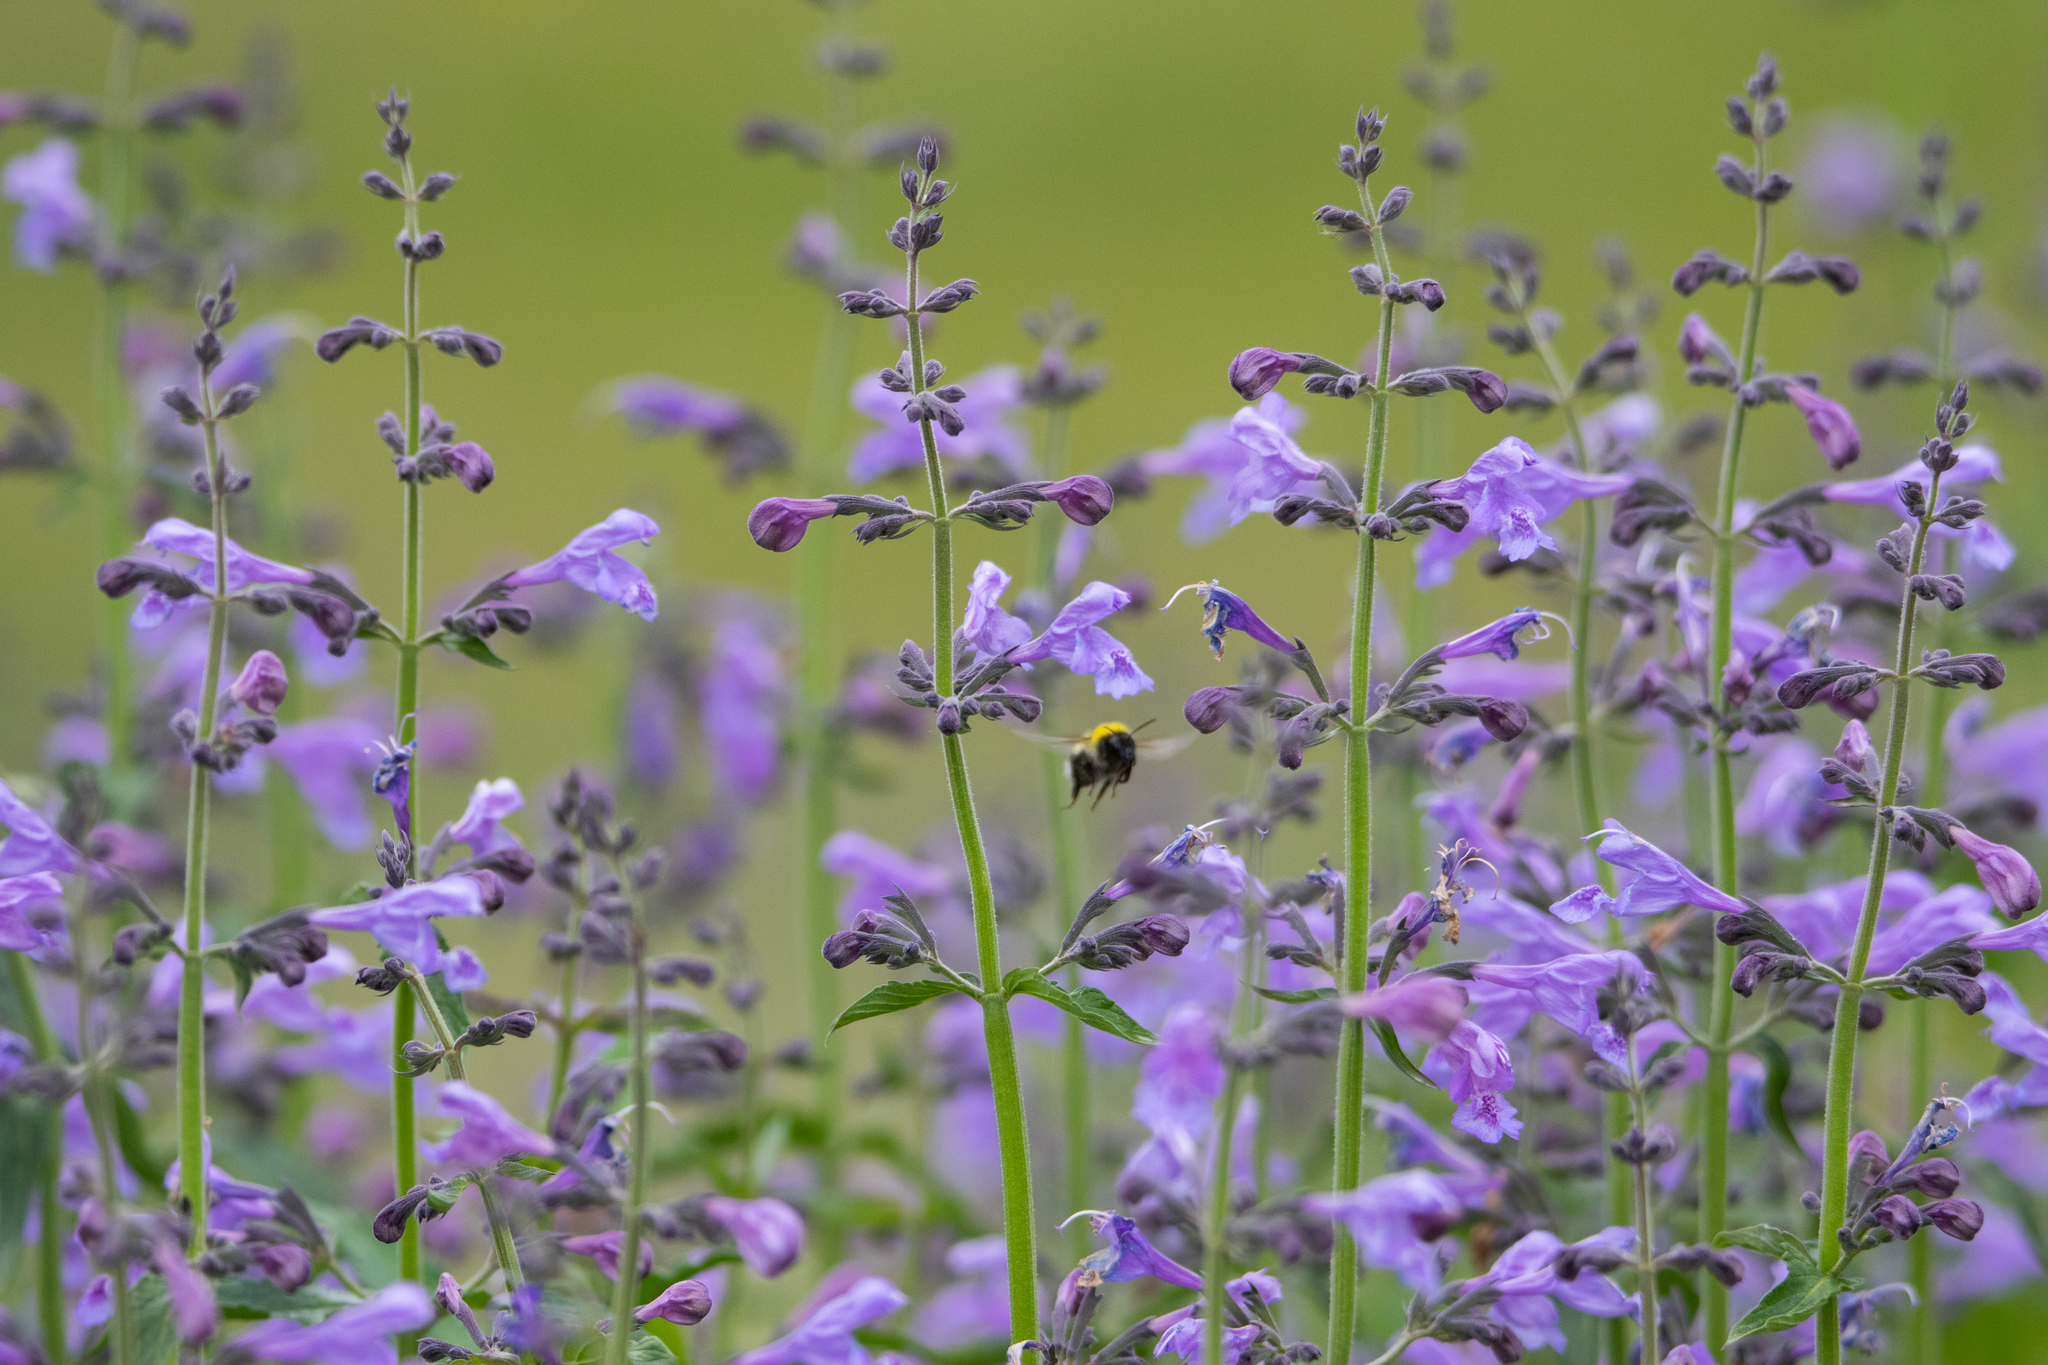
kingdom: Animalia
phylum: Arthropoda
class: Insecta
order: Hymenoptera
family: Apidae
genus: Bombus
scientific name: Bombus
